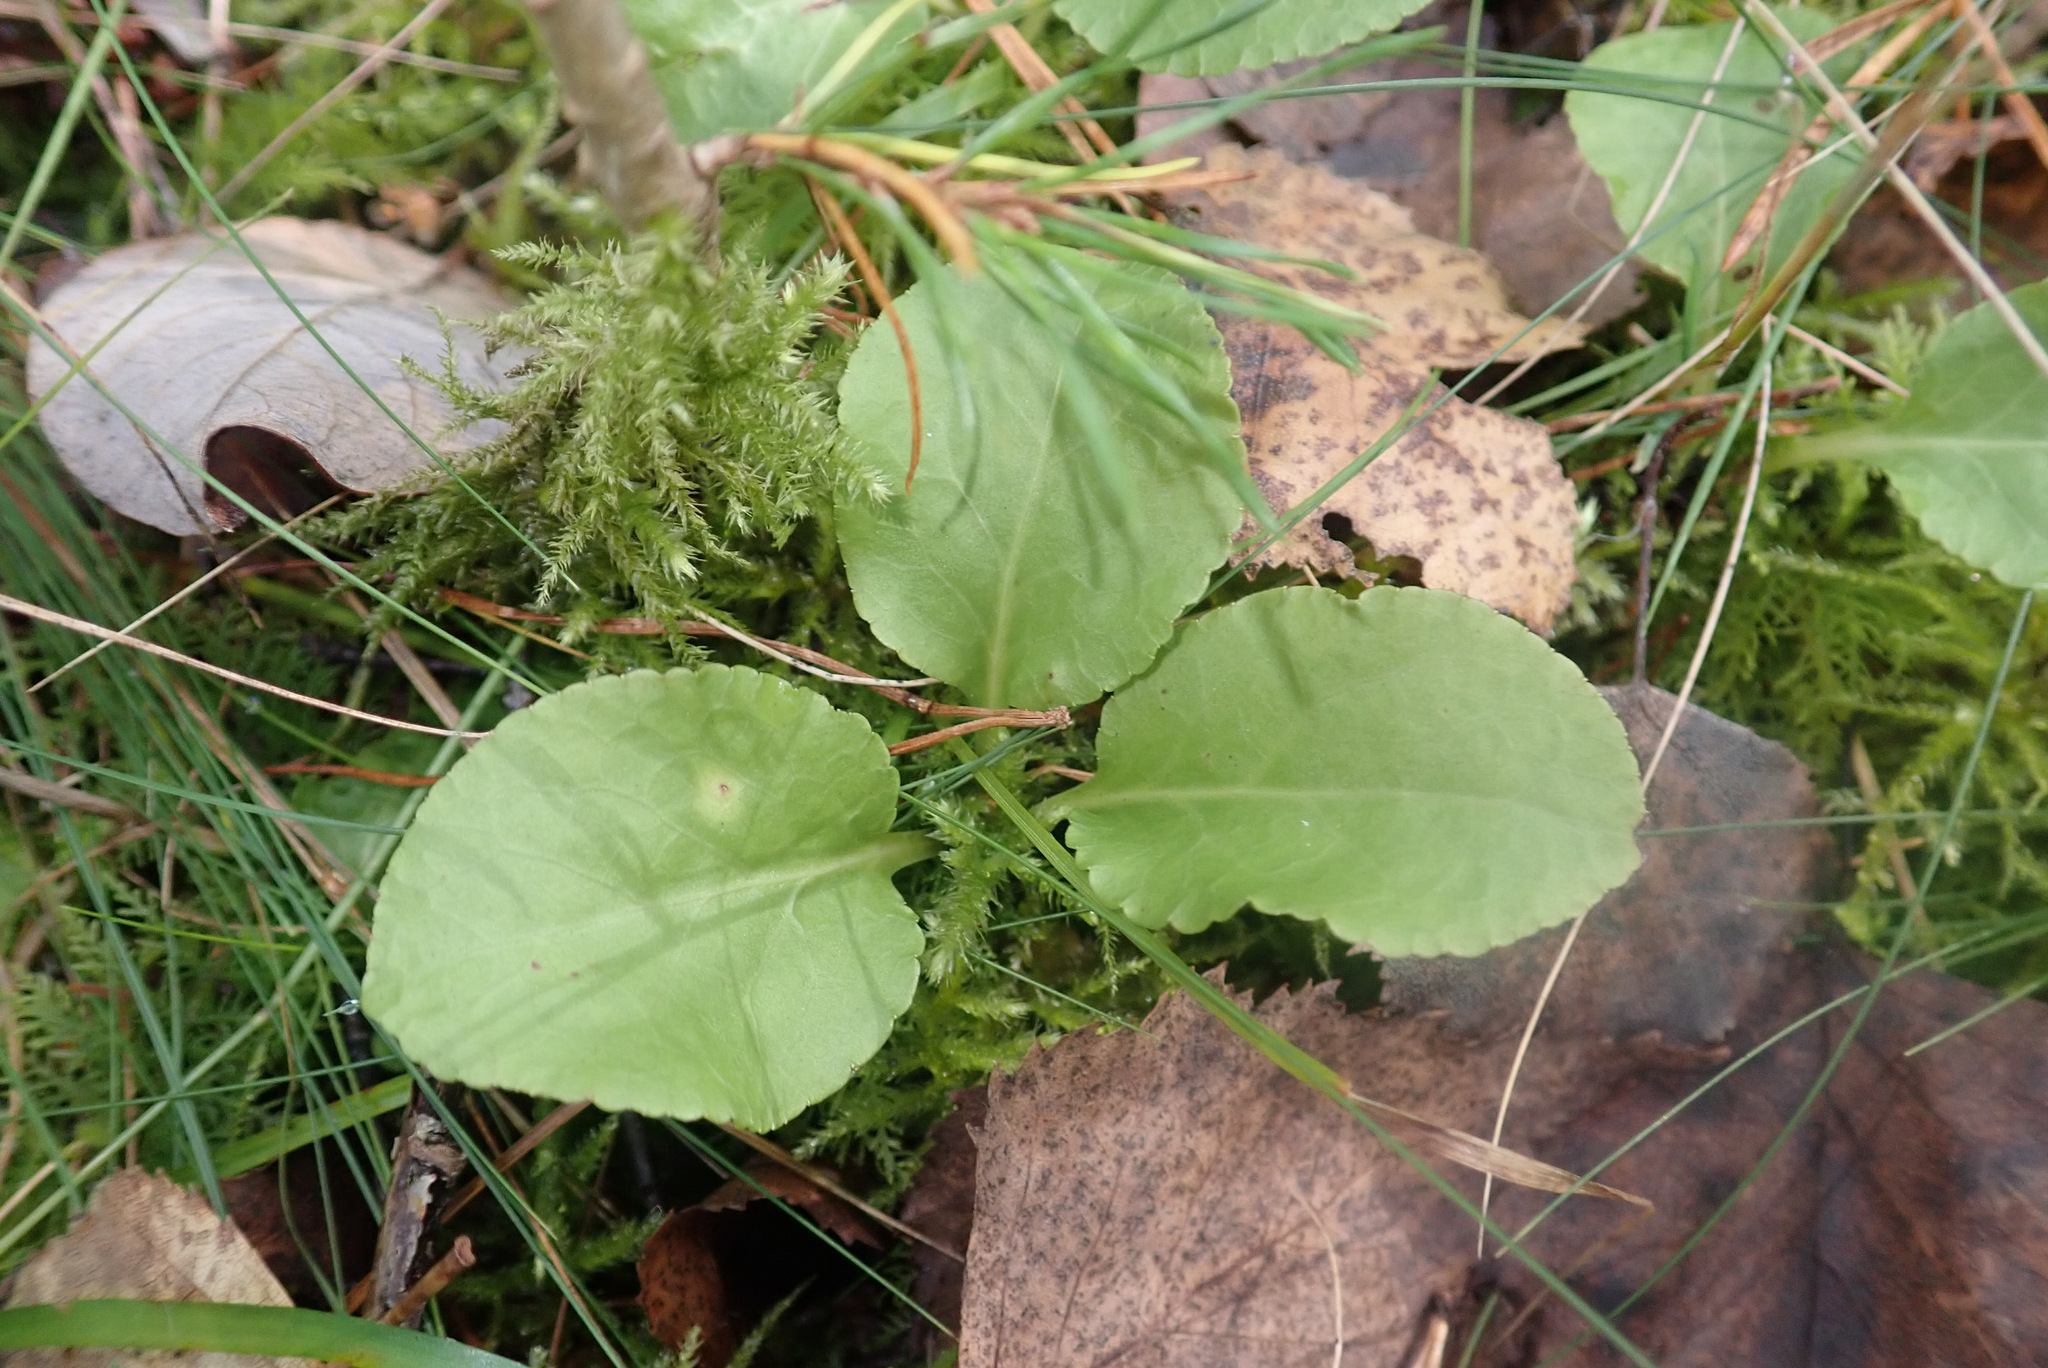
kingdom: Plantae
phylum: Tracheophyta
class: Magnoliopsida
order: Ericales
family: Ericaceae
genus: Pyrola
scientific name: Pyrola minor
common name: Common wintergreen
